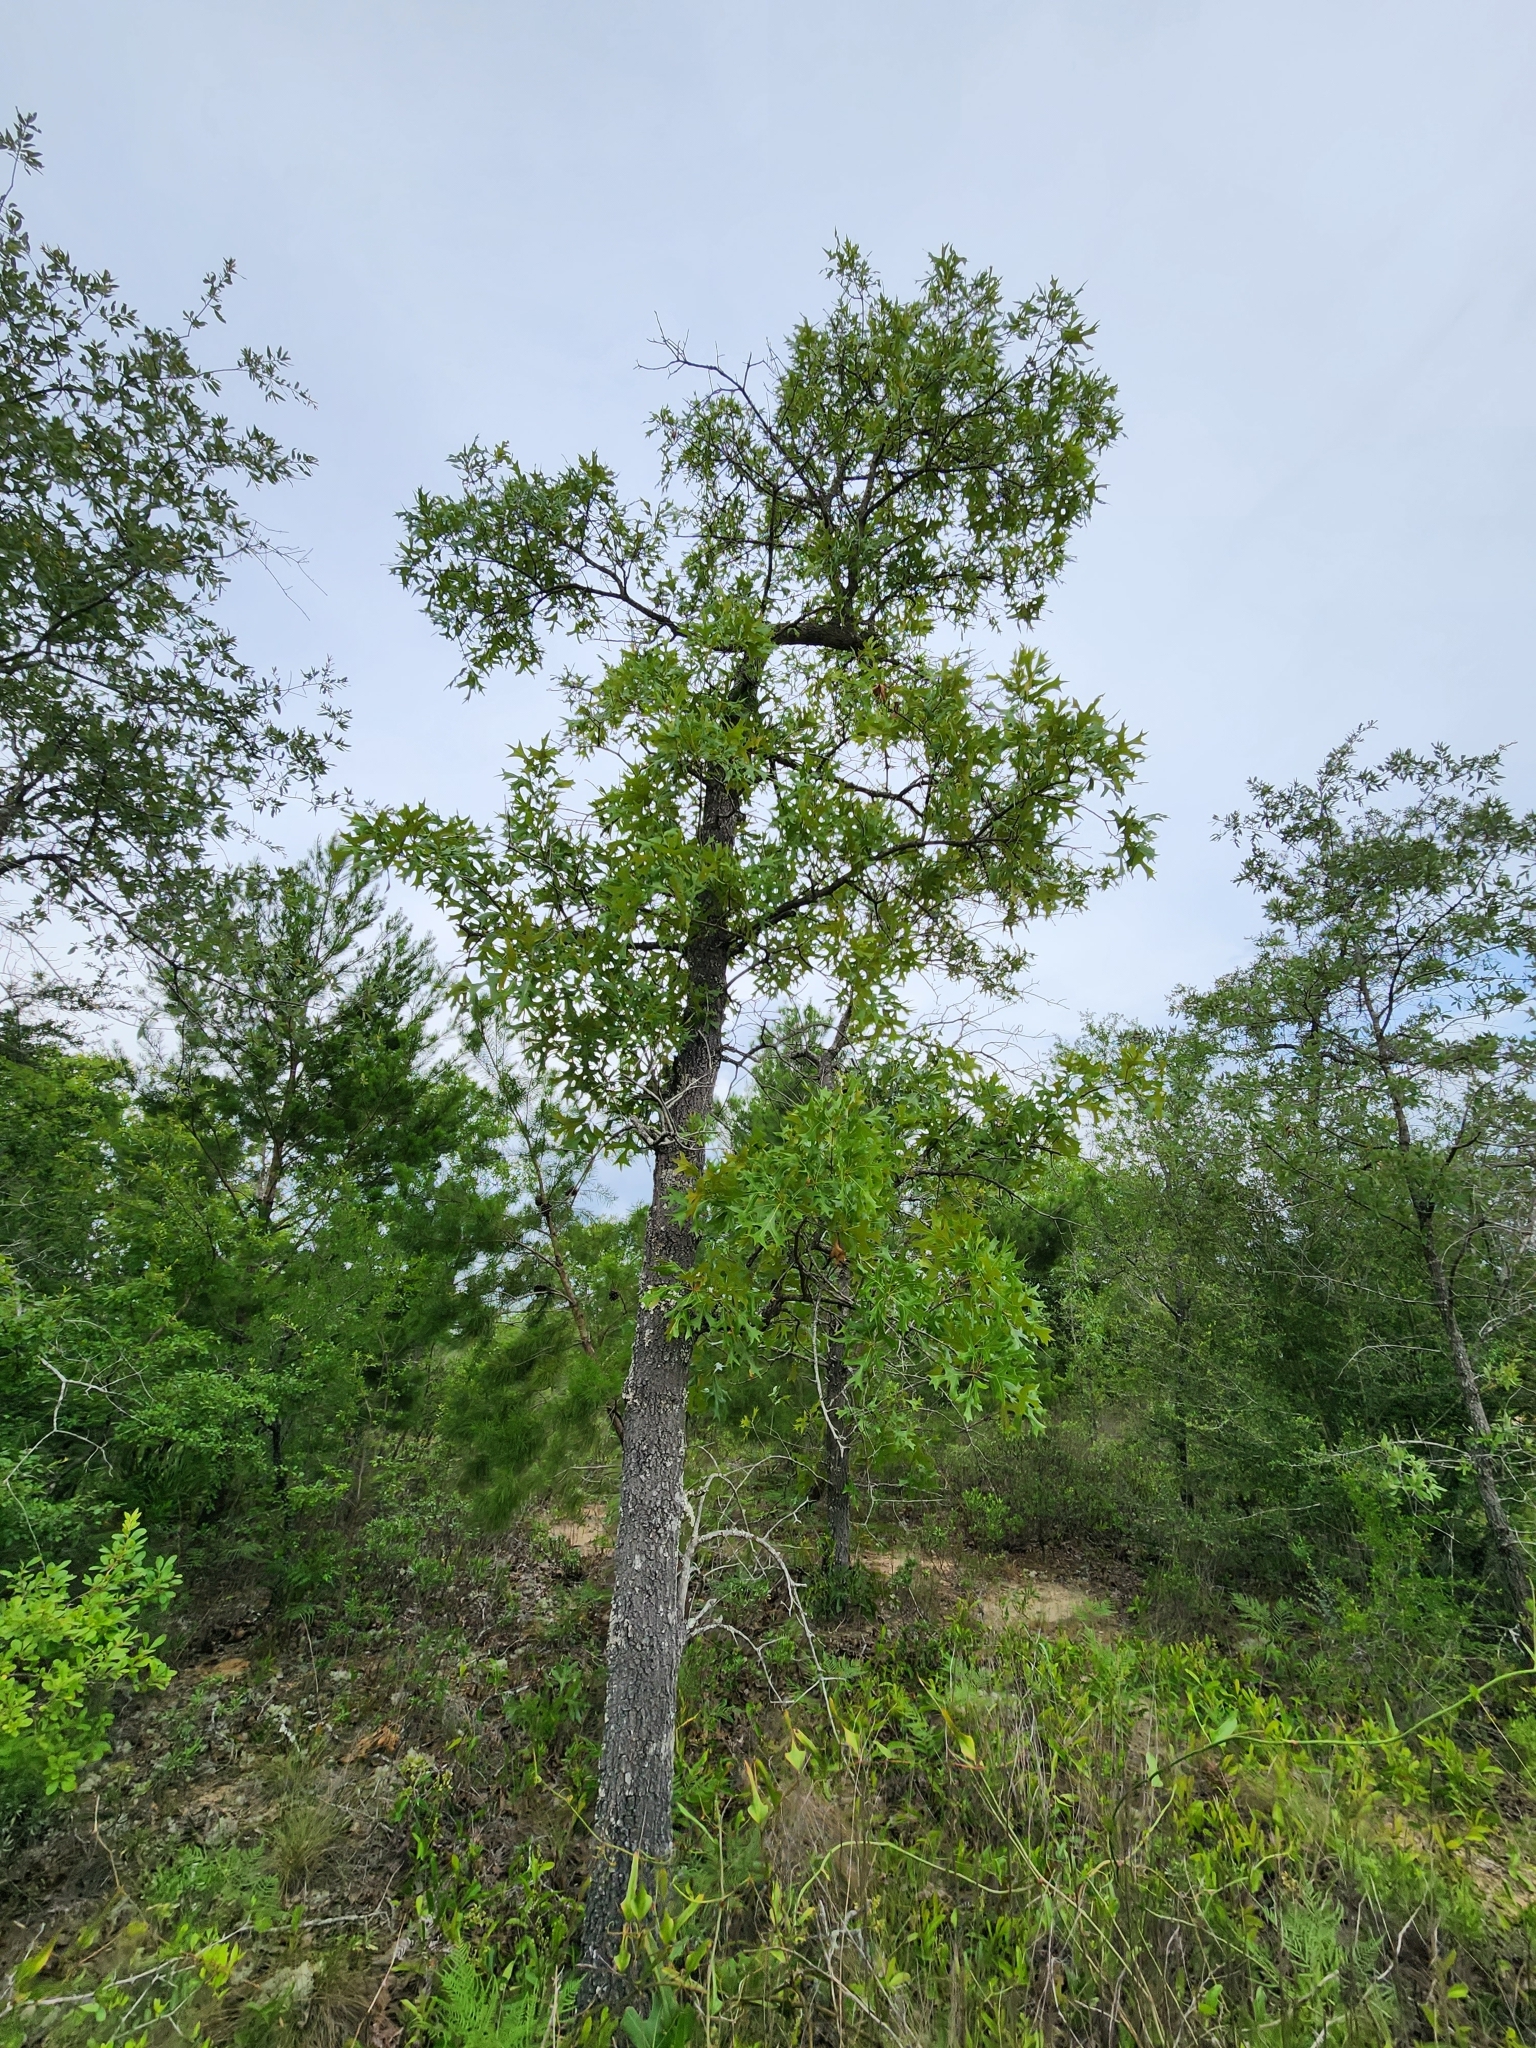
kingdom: Plantae
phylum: Tracheophyta
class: Magnoliopsida
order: Fagales
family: Fagaceae
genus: Quercus
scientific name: Quercus laevis
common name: Turkey oak
